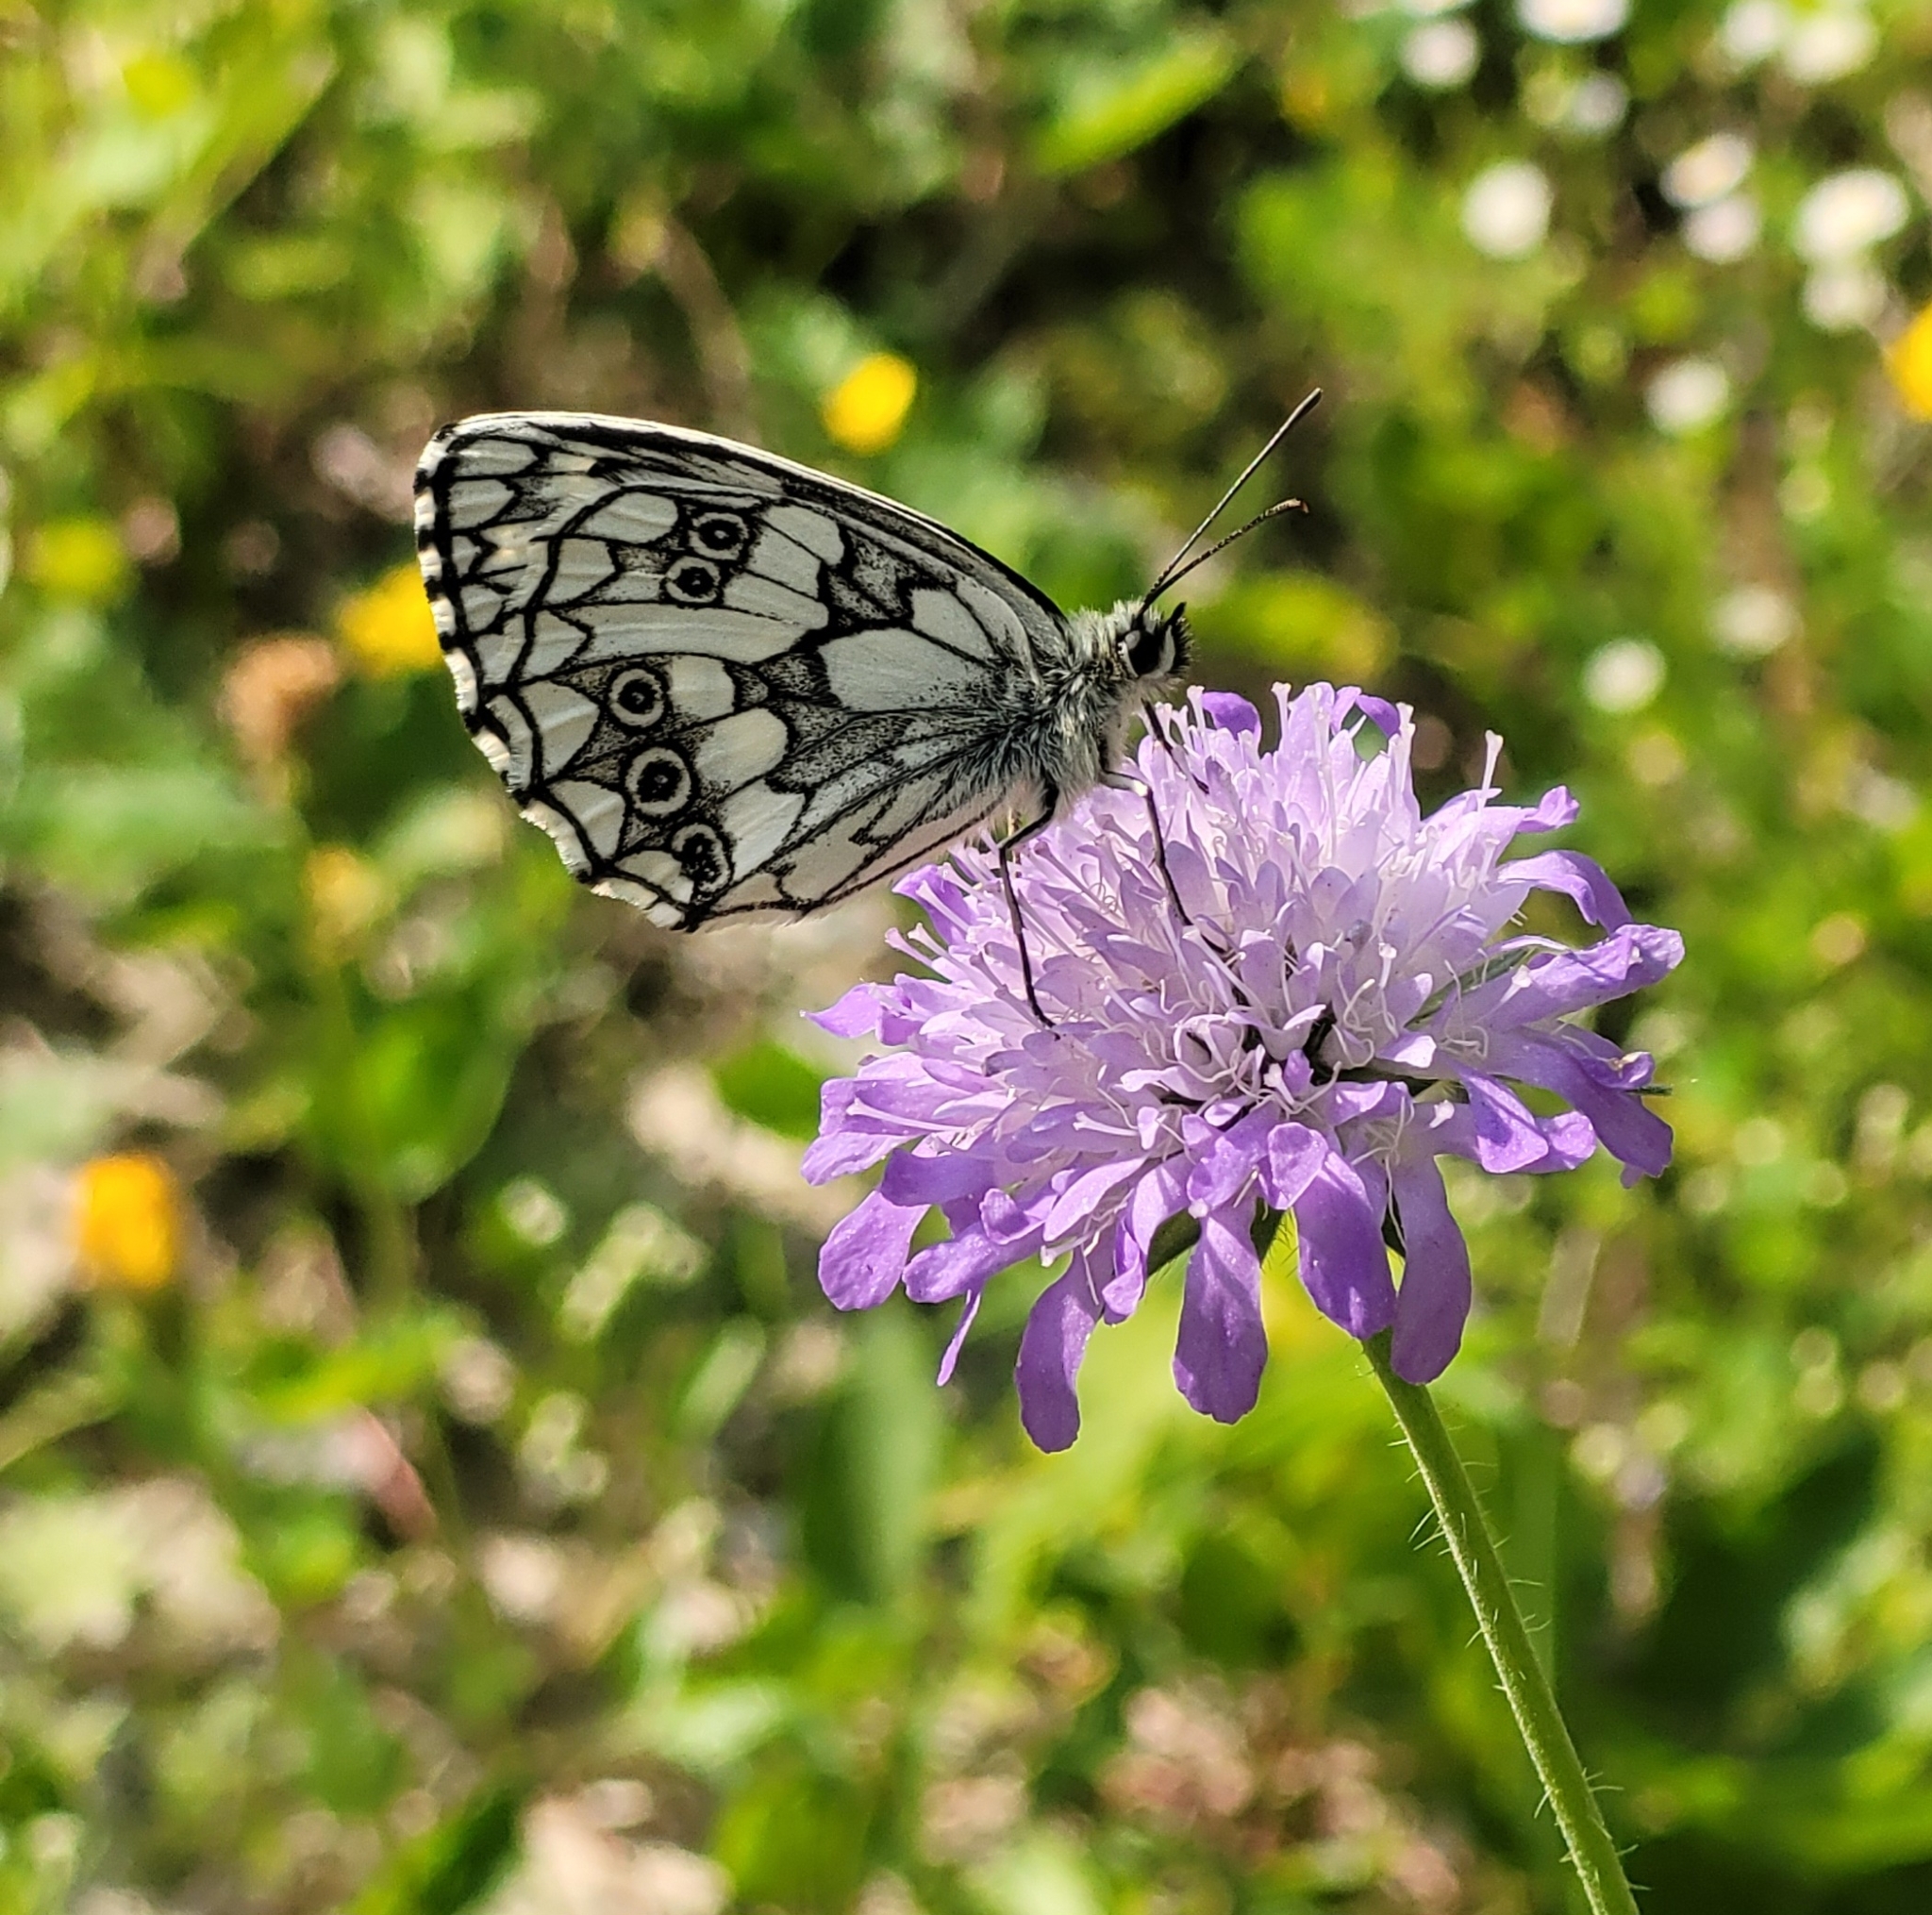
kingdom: Animalia
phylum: Arthropoda
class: Insecta
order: Lepidoptera
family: Nymphalidae
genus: Melanargia
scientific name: Melanargia galathea
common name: Marbled white
